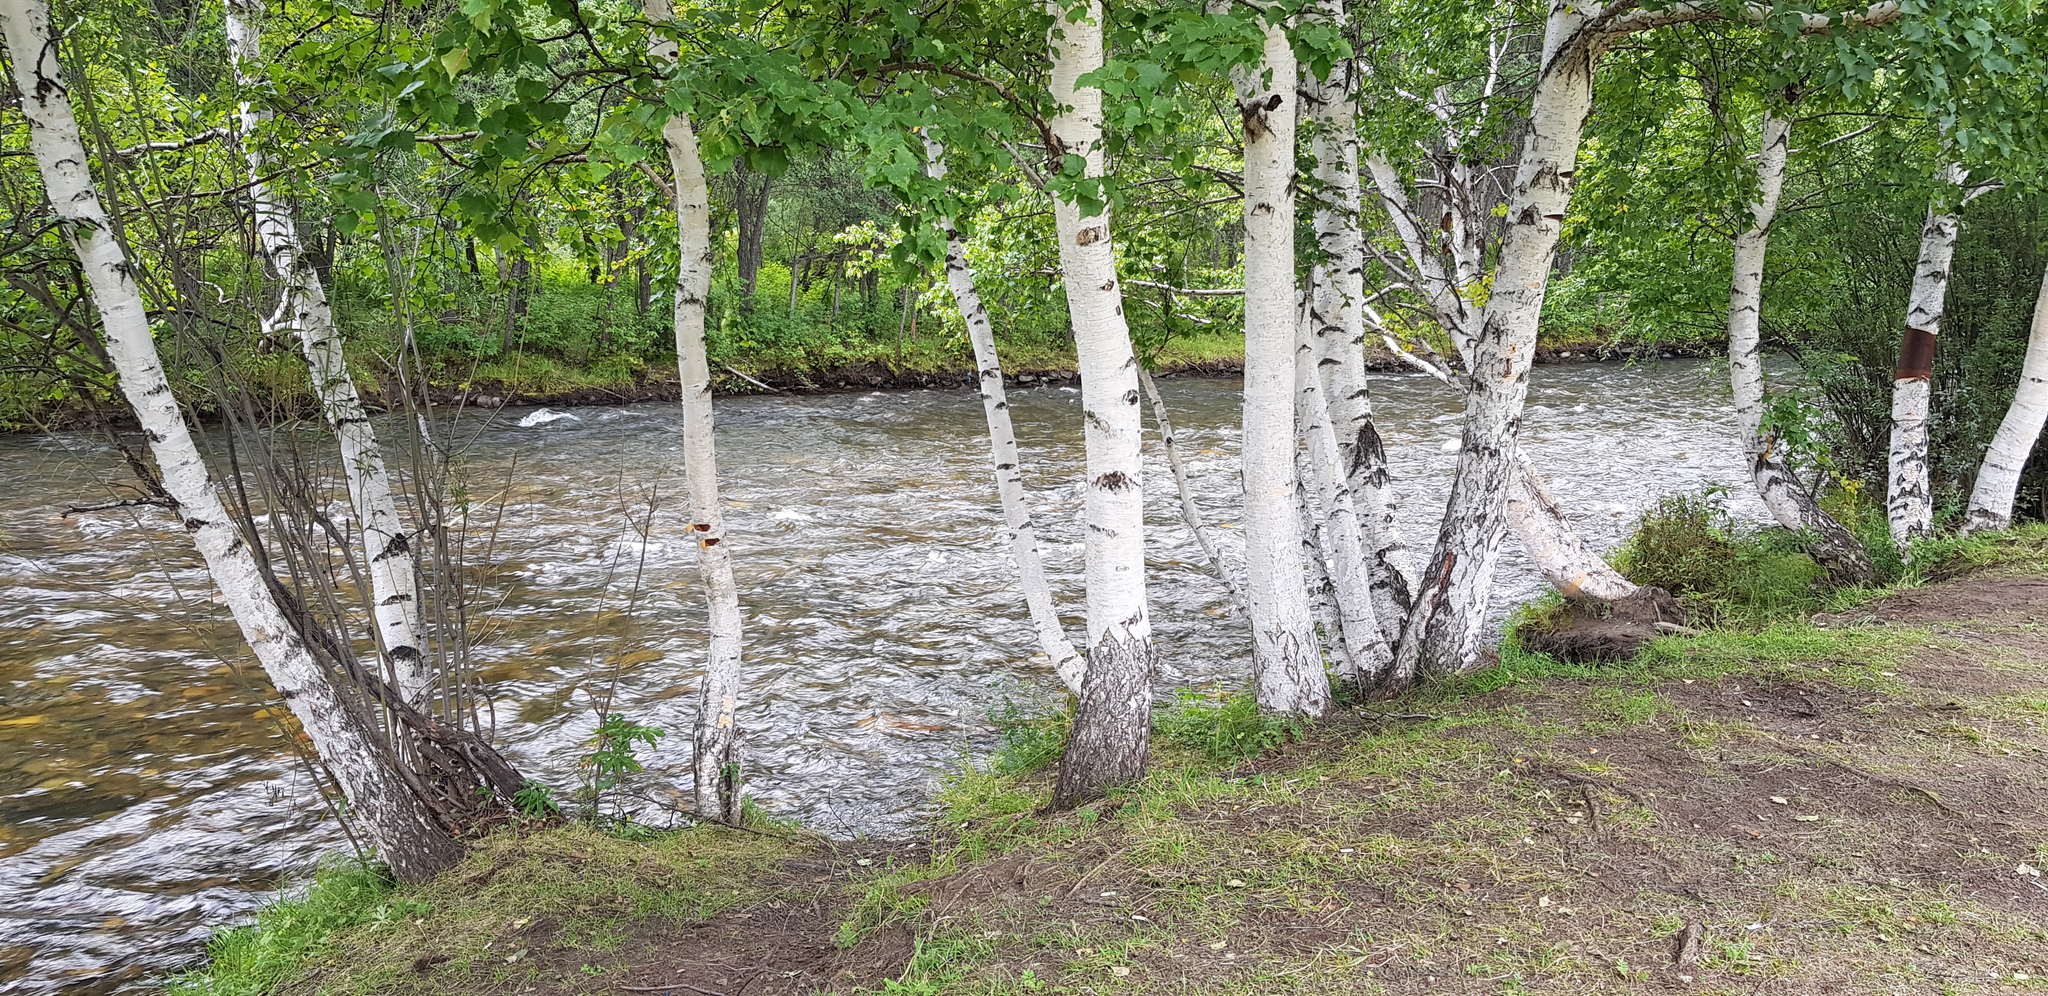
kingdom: Plantae
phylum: Tracheophyta
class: Magnoliopsida
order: Fagales
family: Betulaceae
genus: Betula
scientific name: Betula pendula
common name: Silver birch
